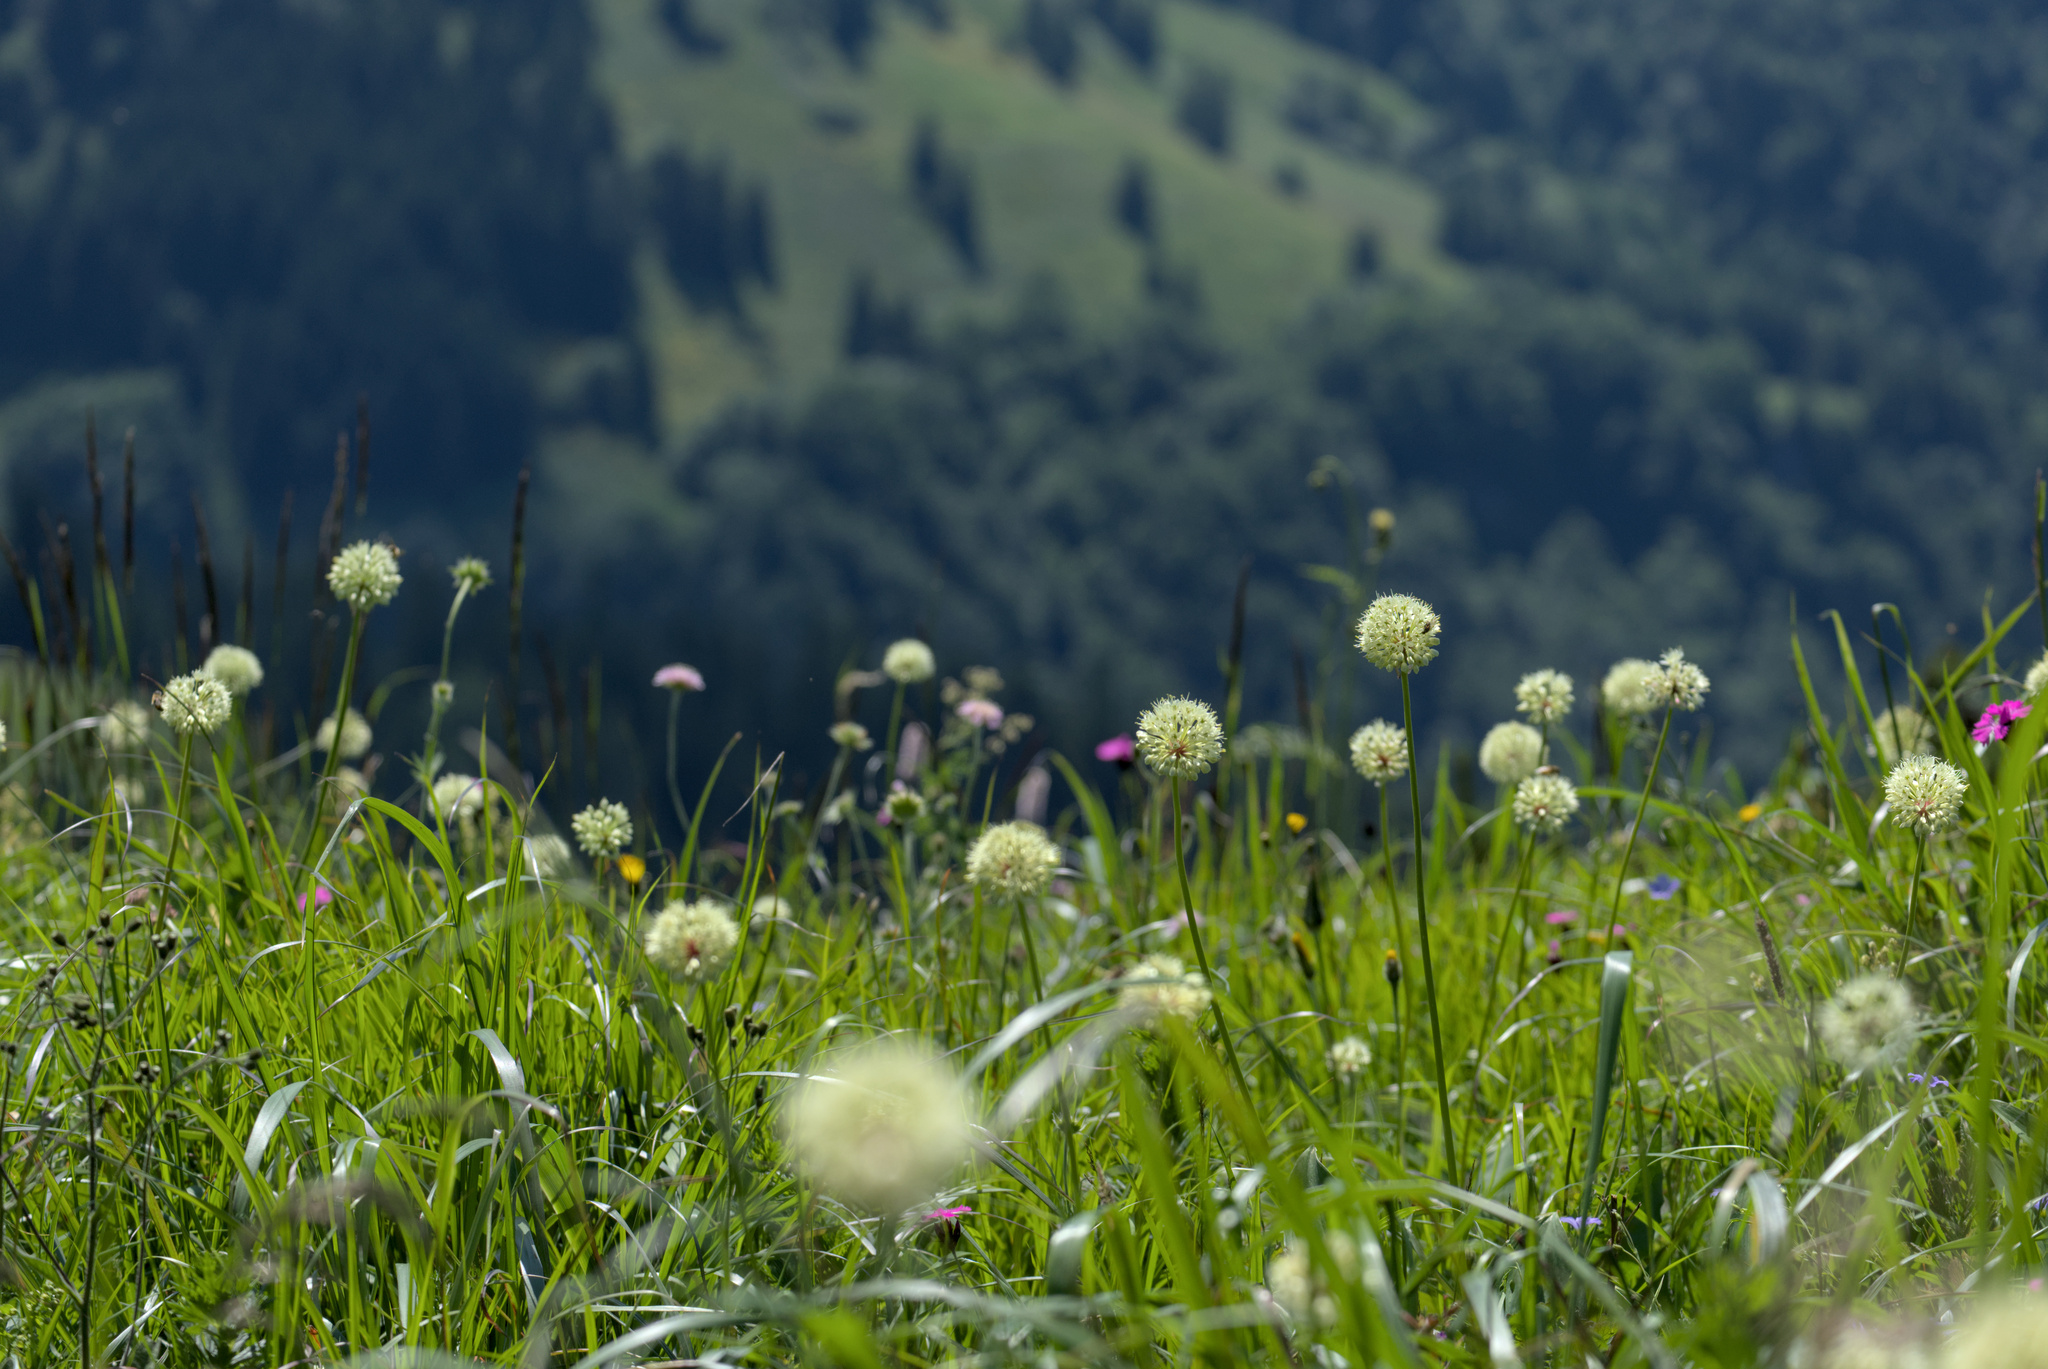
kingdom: Plantae
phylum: Tracheophyta
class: Liliopsida
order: Asparagales
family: Amaryllidaceae
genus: Allium
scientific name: Allium victorialis
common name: Alpine leek
